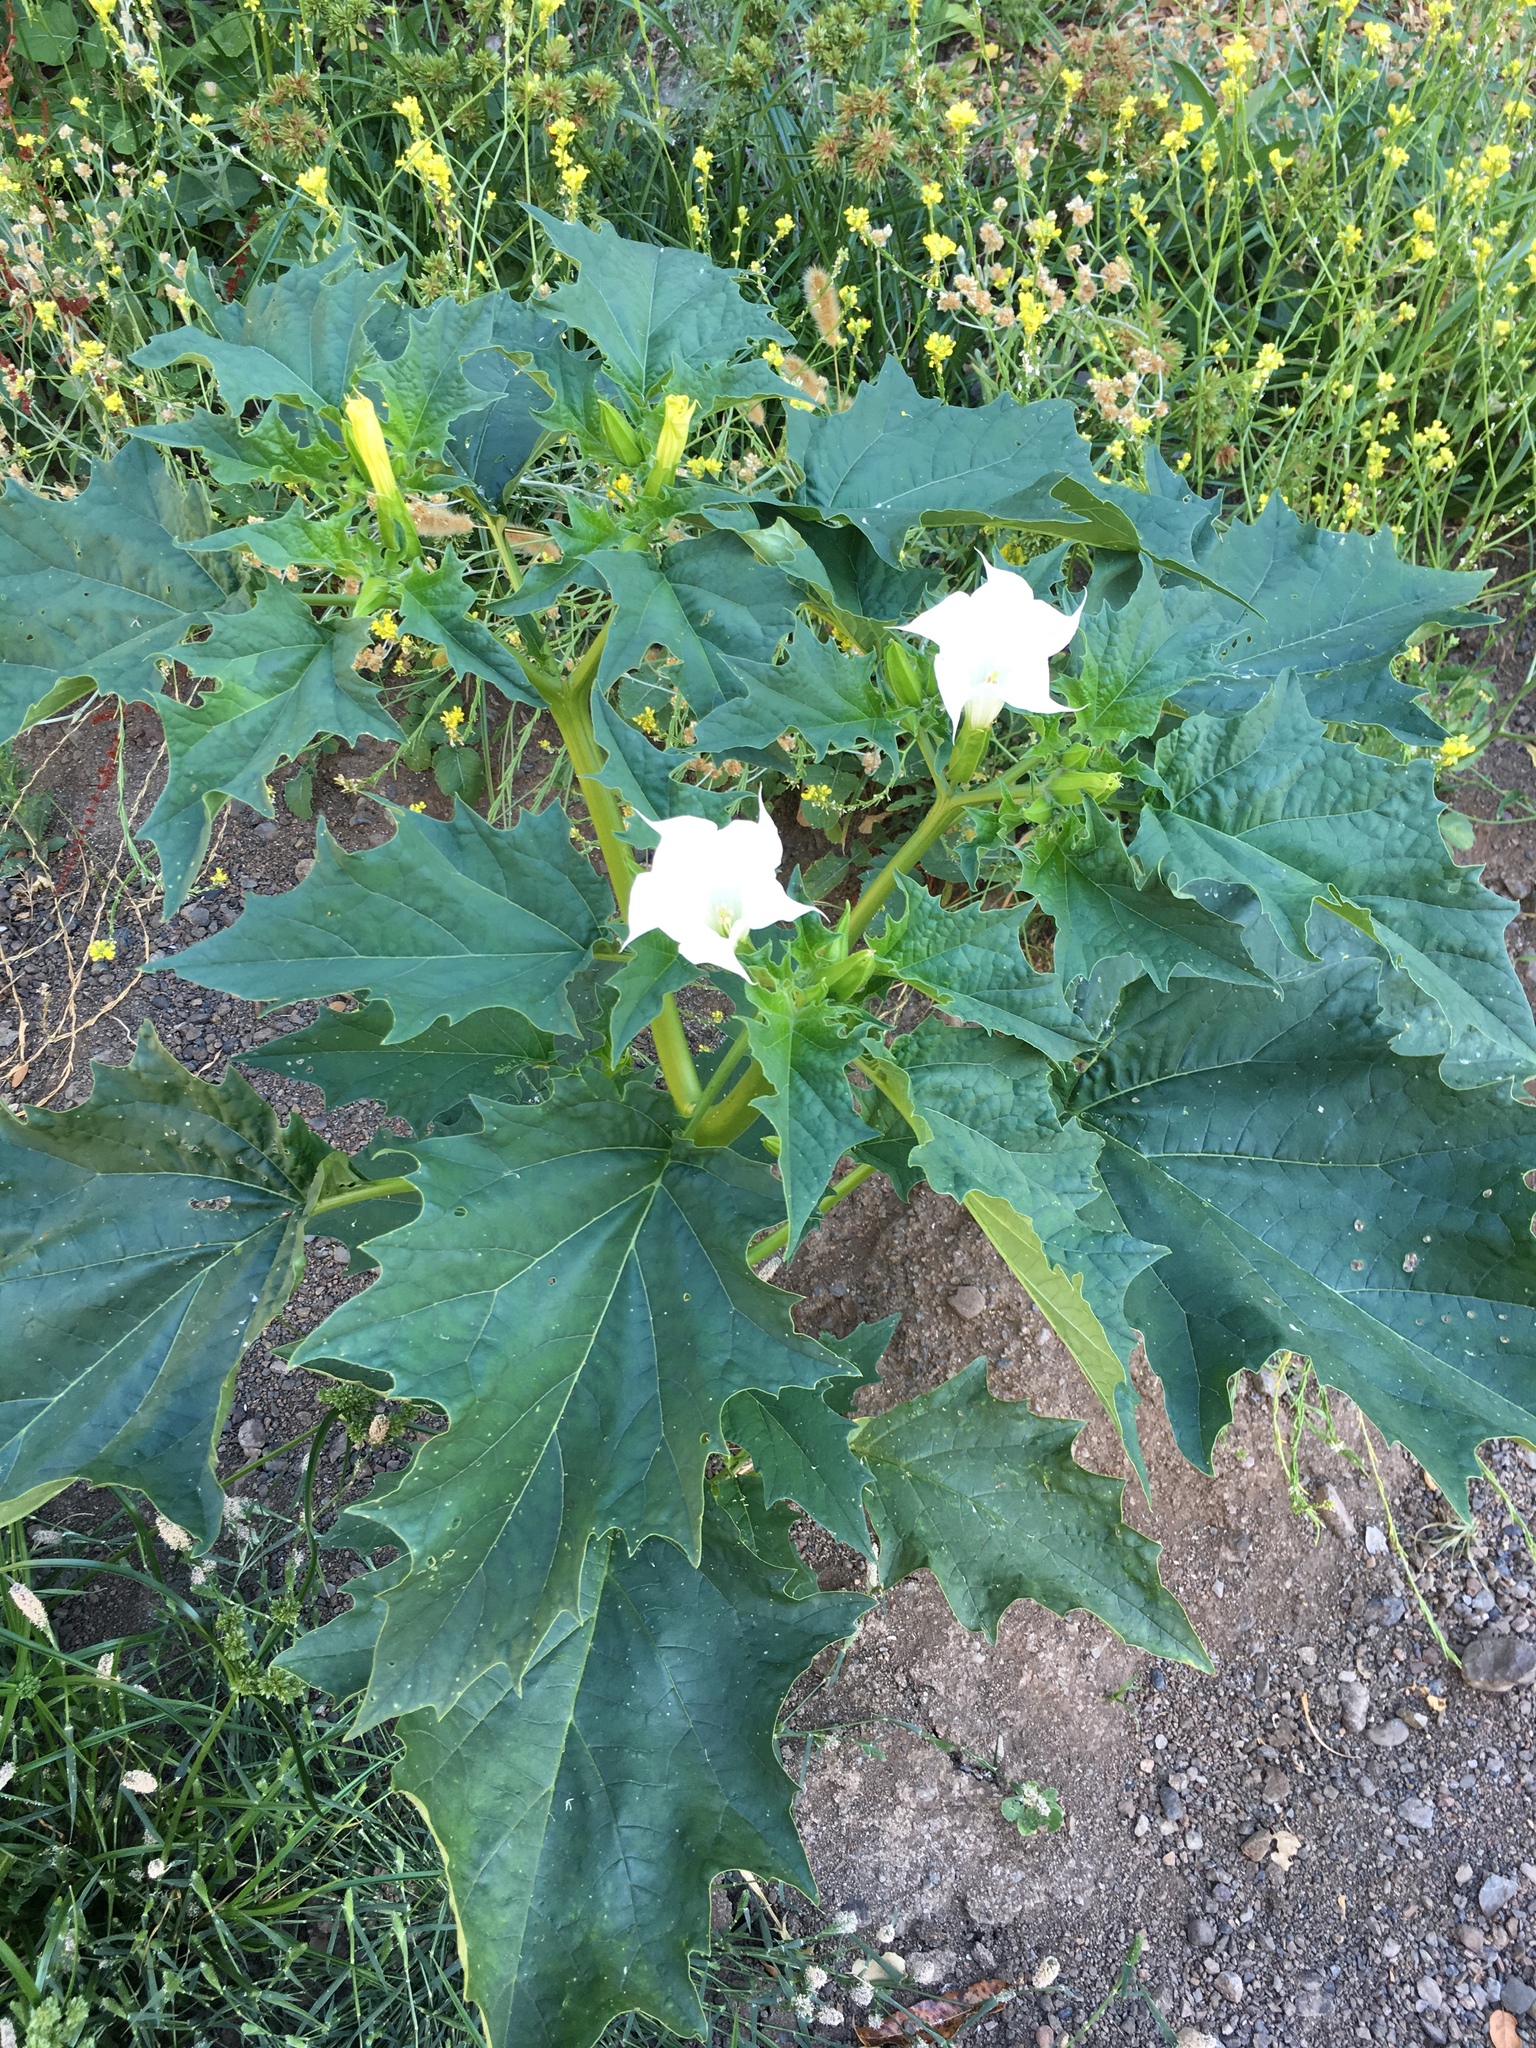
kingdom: Plantae
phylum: Tracheophyta
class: Magnoliopsida
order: Solanales
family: Solanaceae
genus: Datura
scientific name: Datura stramonium
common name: Thorn-apple
